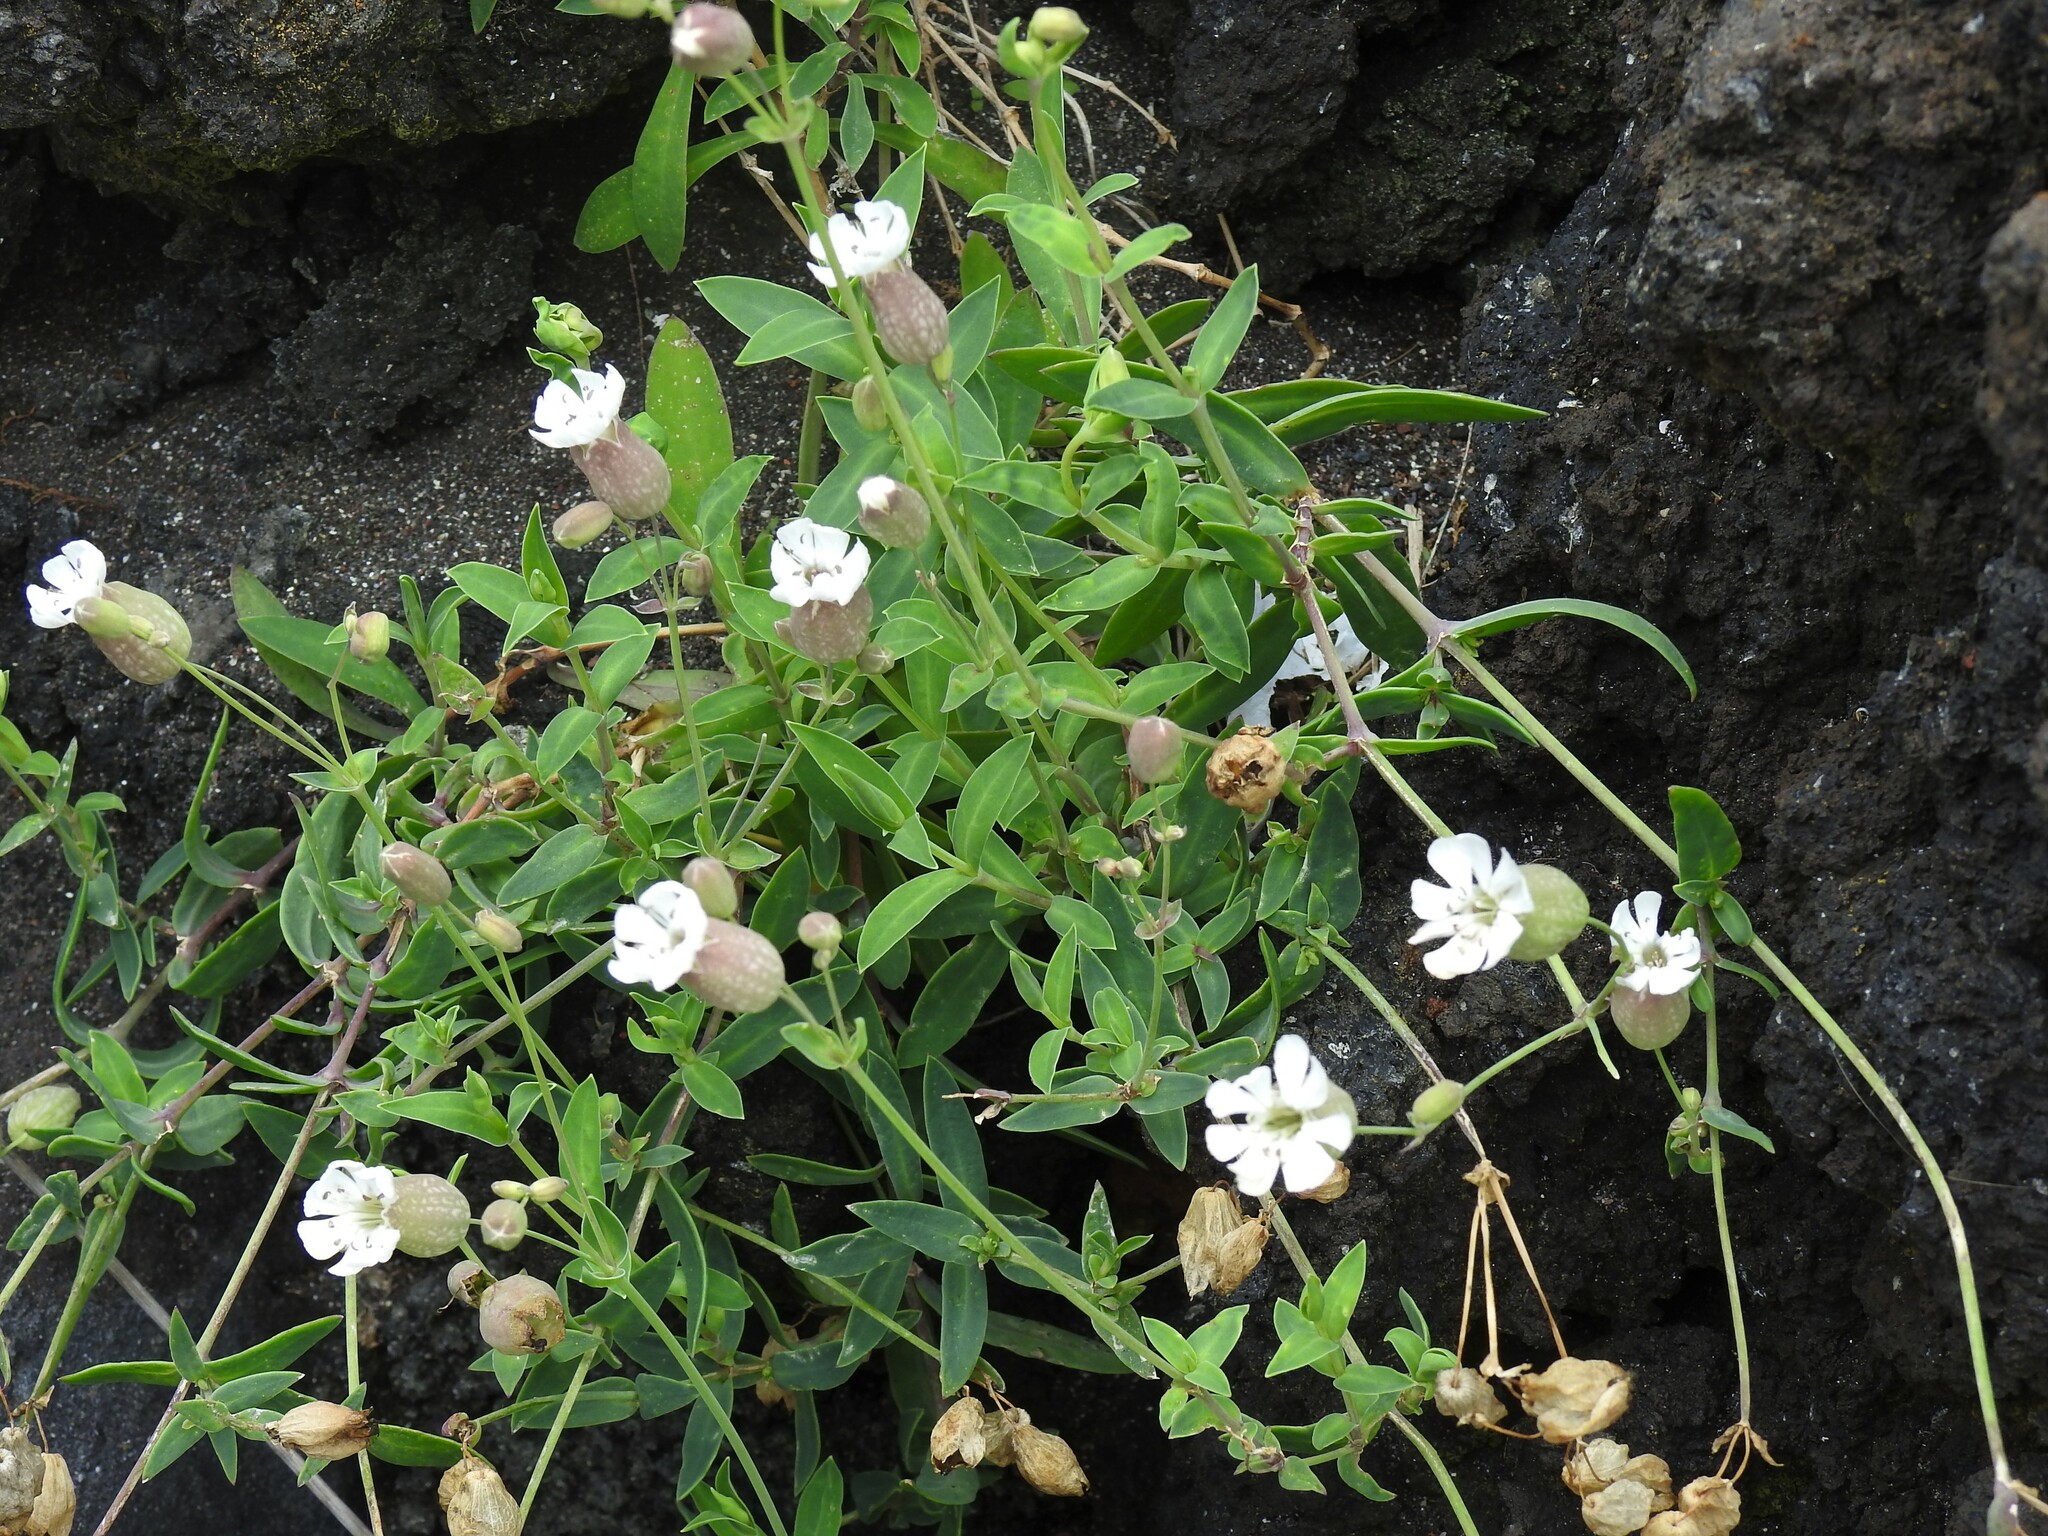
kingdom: Plantae
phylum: Tracheophyta
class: Magnoliopsida
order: Caryophyllales
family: Caryophyllaceae
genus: Silene
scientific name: Silene uniflora
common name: Sea campion
